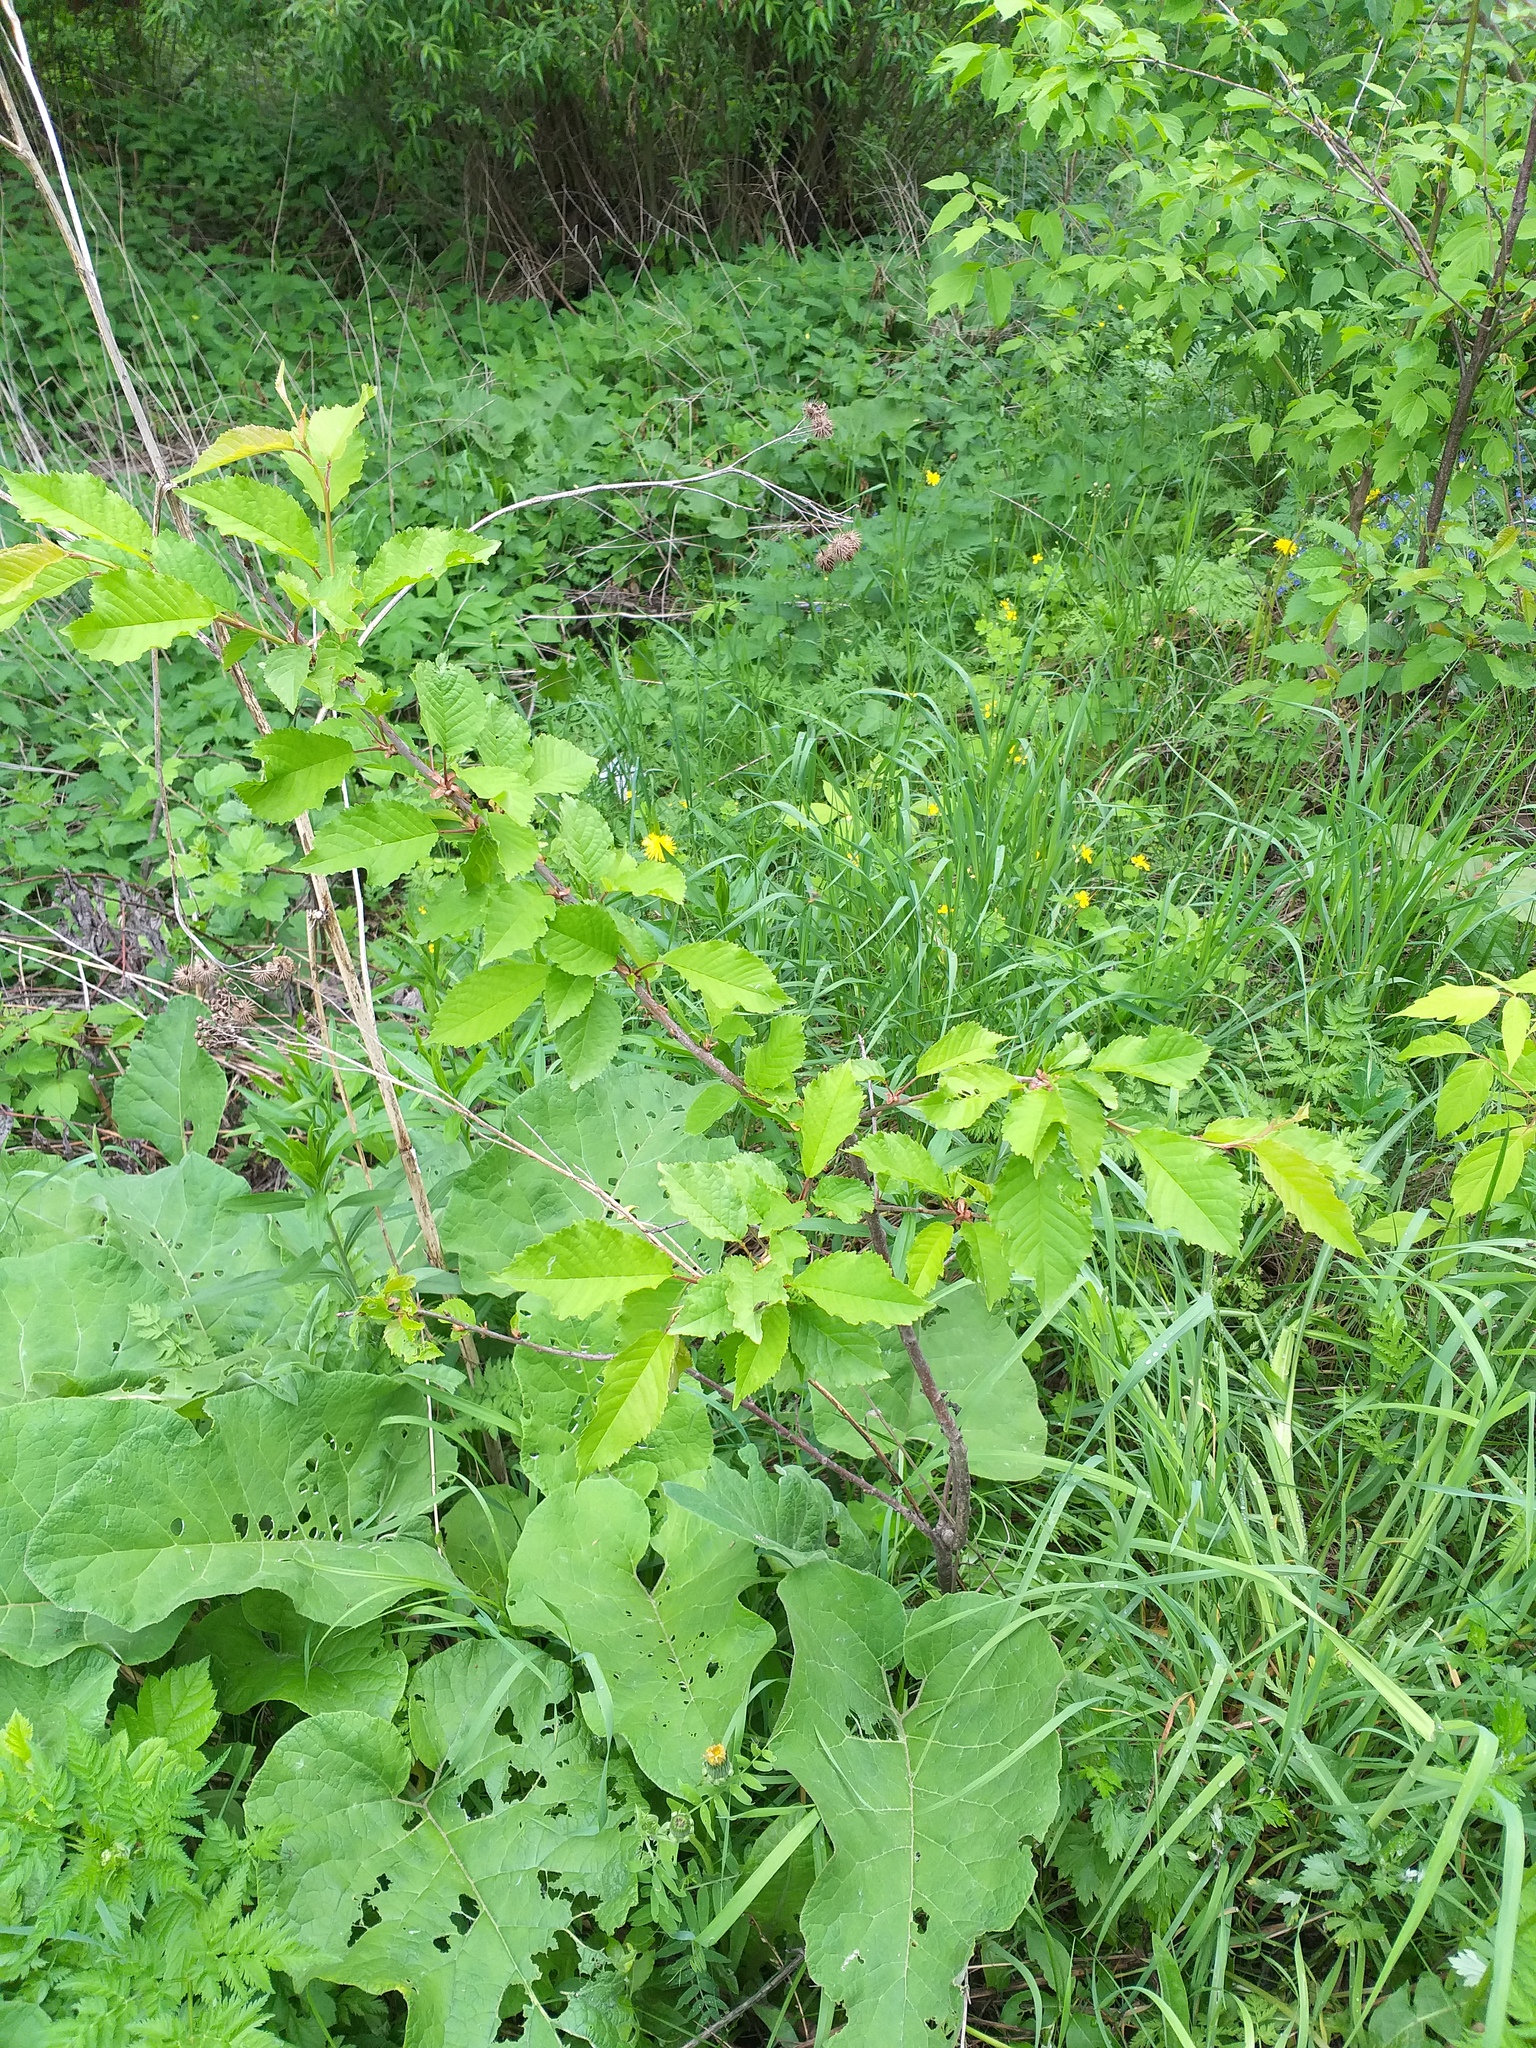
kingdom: Plantae
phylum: Tracheophyta
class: Magnoliopsida
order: Rosales
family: Rosaceae
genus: Prunus
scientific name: Prunus avium
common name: Sweet cherry
